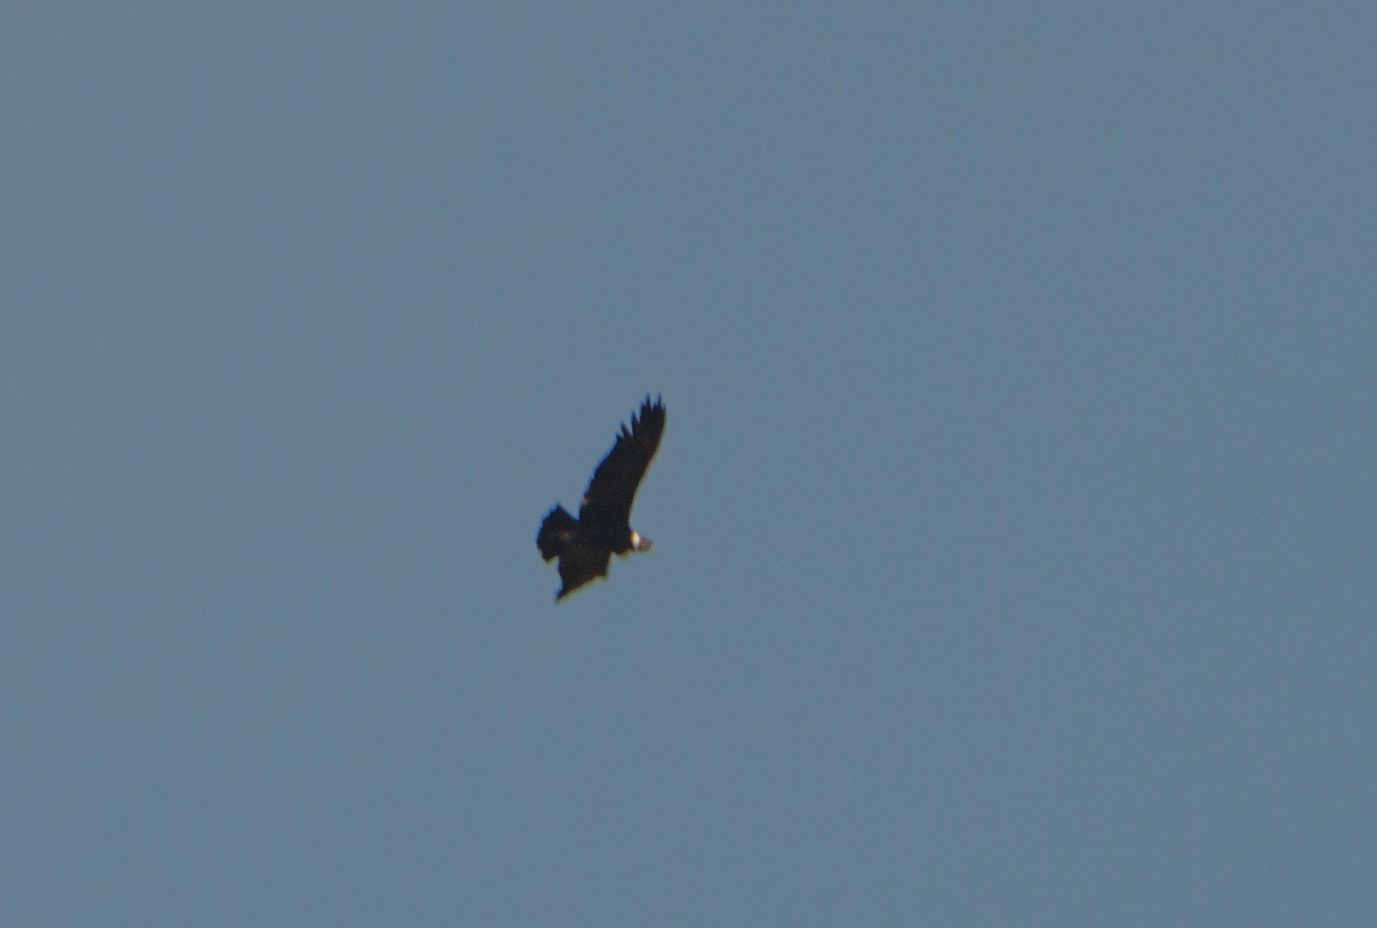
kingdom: Animalia
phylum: Chordata
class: Aves
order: Accipitriformes
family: Cathartidae
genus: Vultur
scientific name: Vultur gryphus
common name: Andean condor
